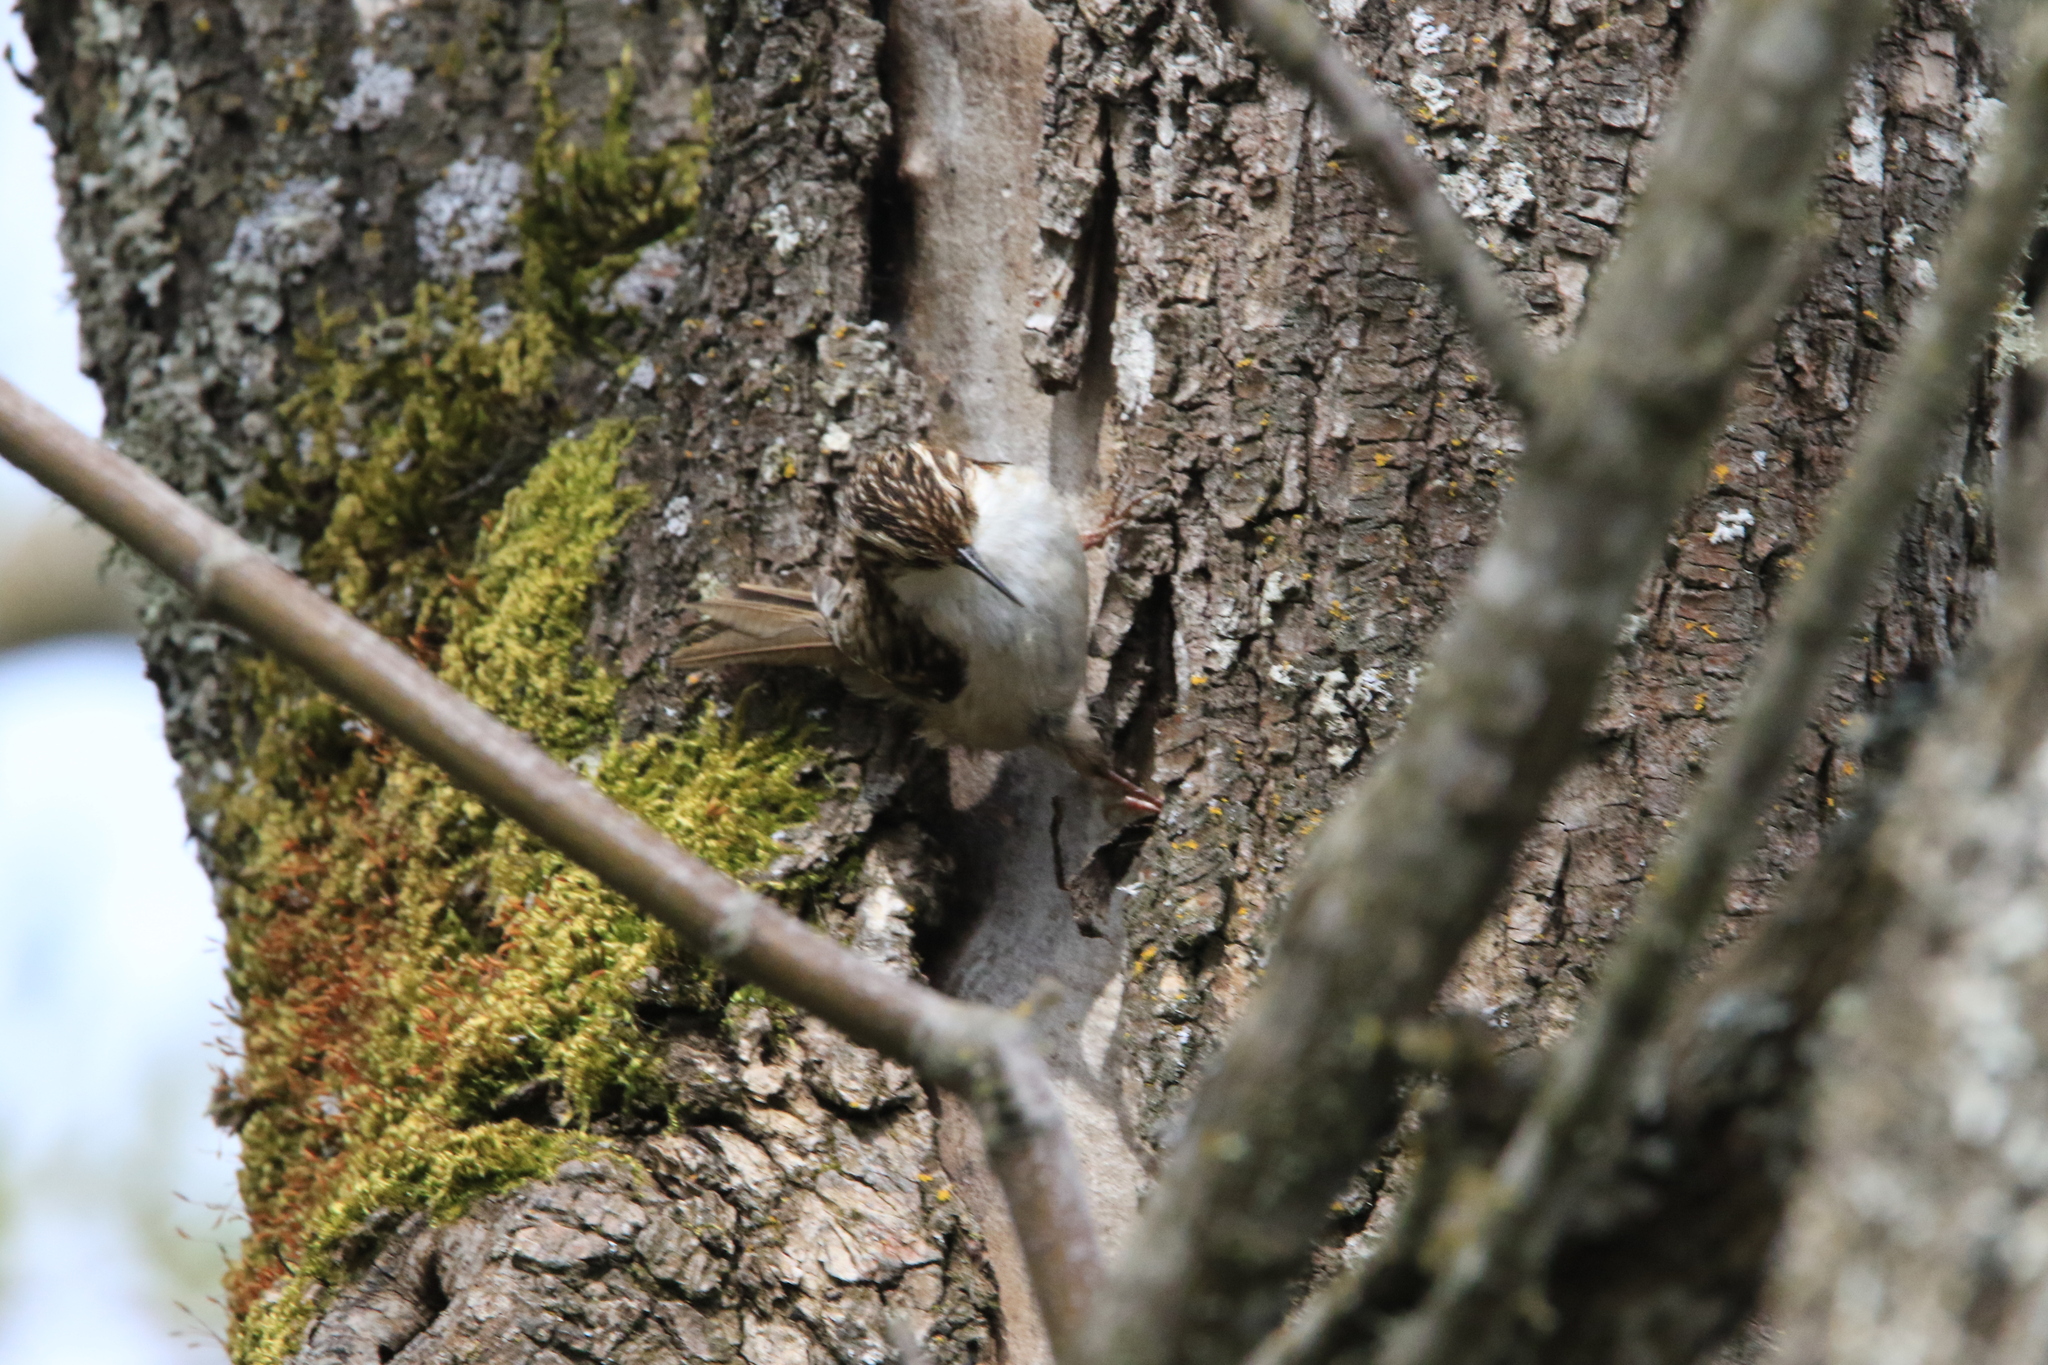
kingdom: Animalia
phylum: Chordata
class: Aves
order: Passeriformes
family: Certhiidae
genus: Certhia
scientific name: Certhia americana
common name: Brown creeper
